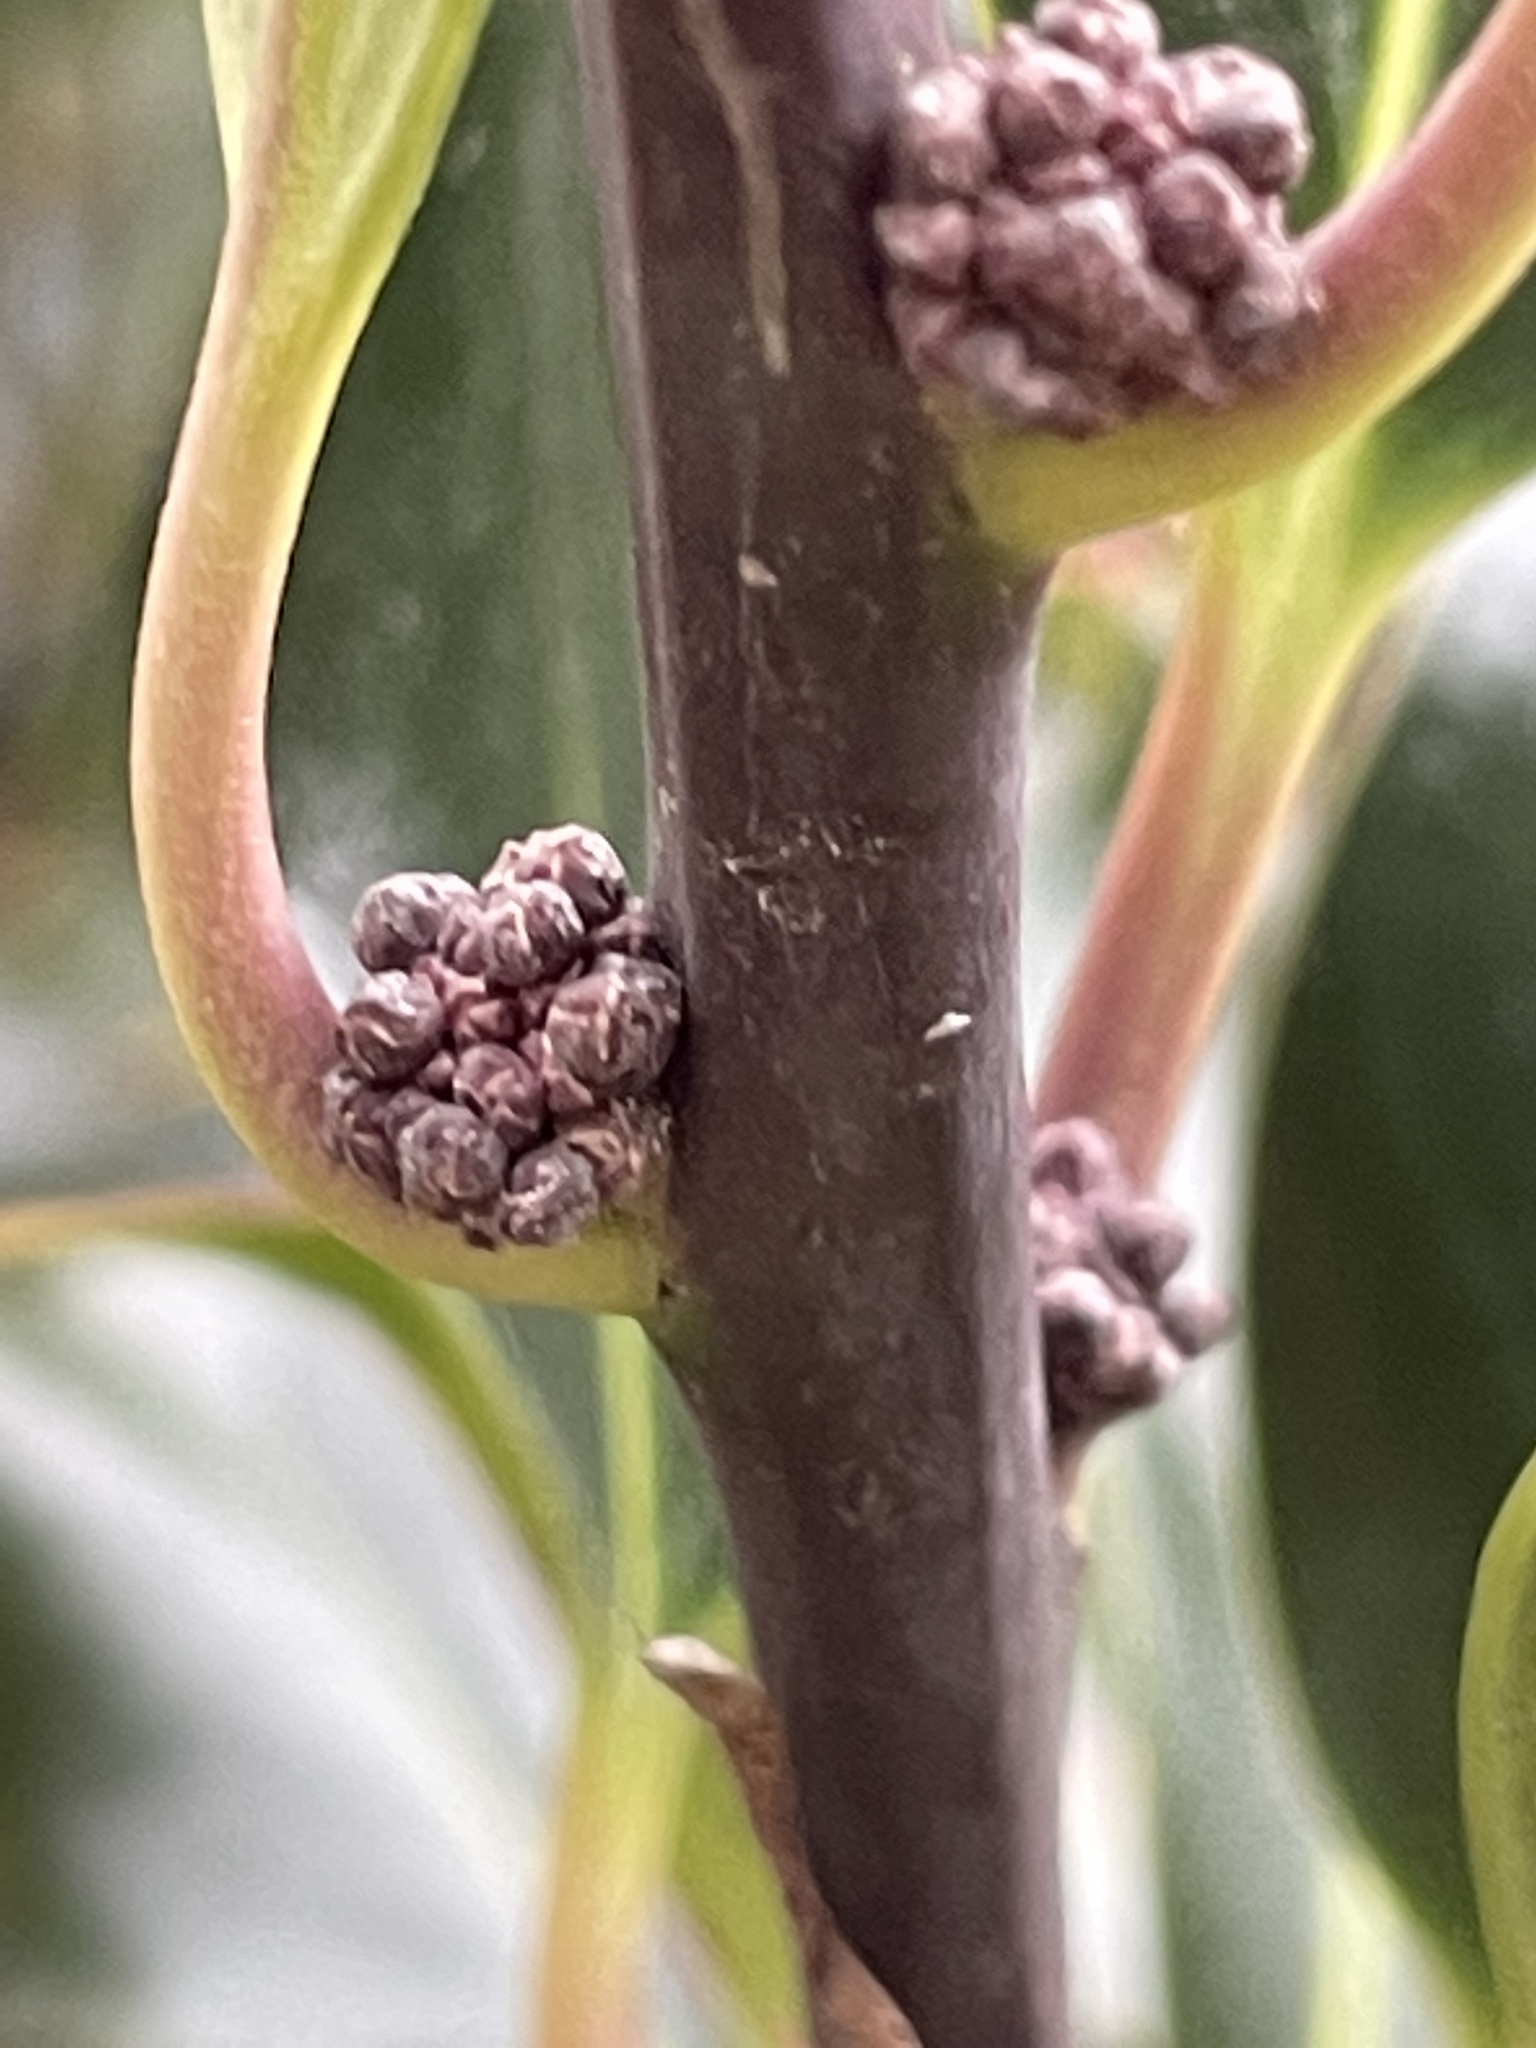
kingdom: Plantae
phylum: Tracheophyta
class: Magnoliopsida
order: Aquifoliales
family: Aquifoliaceae
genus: Ilex
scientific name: Ilex aquifolium
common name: English holly
